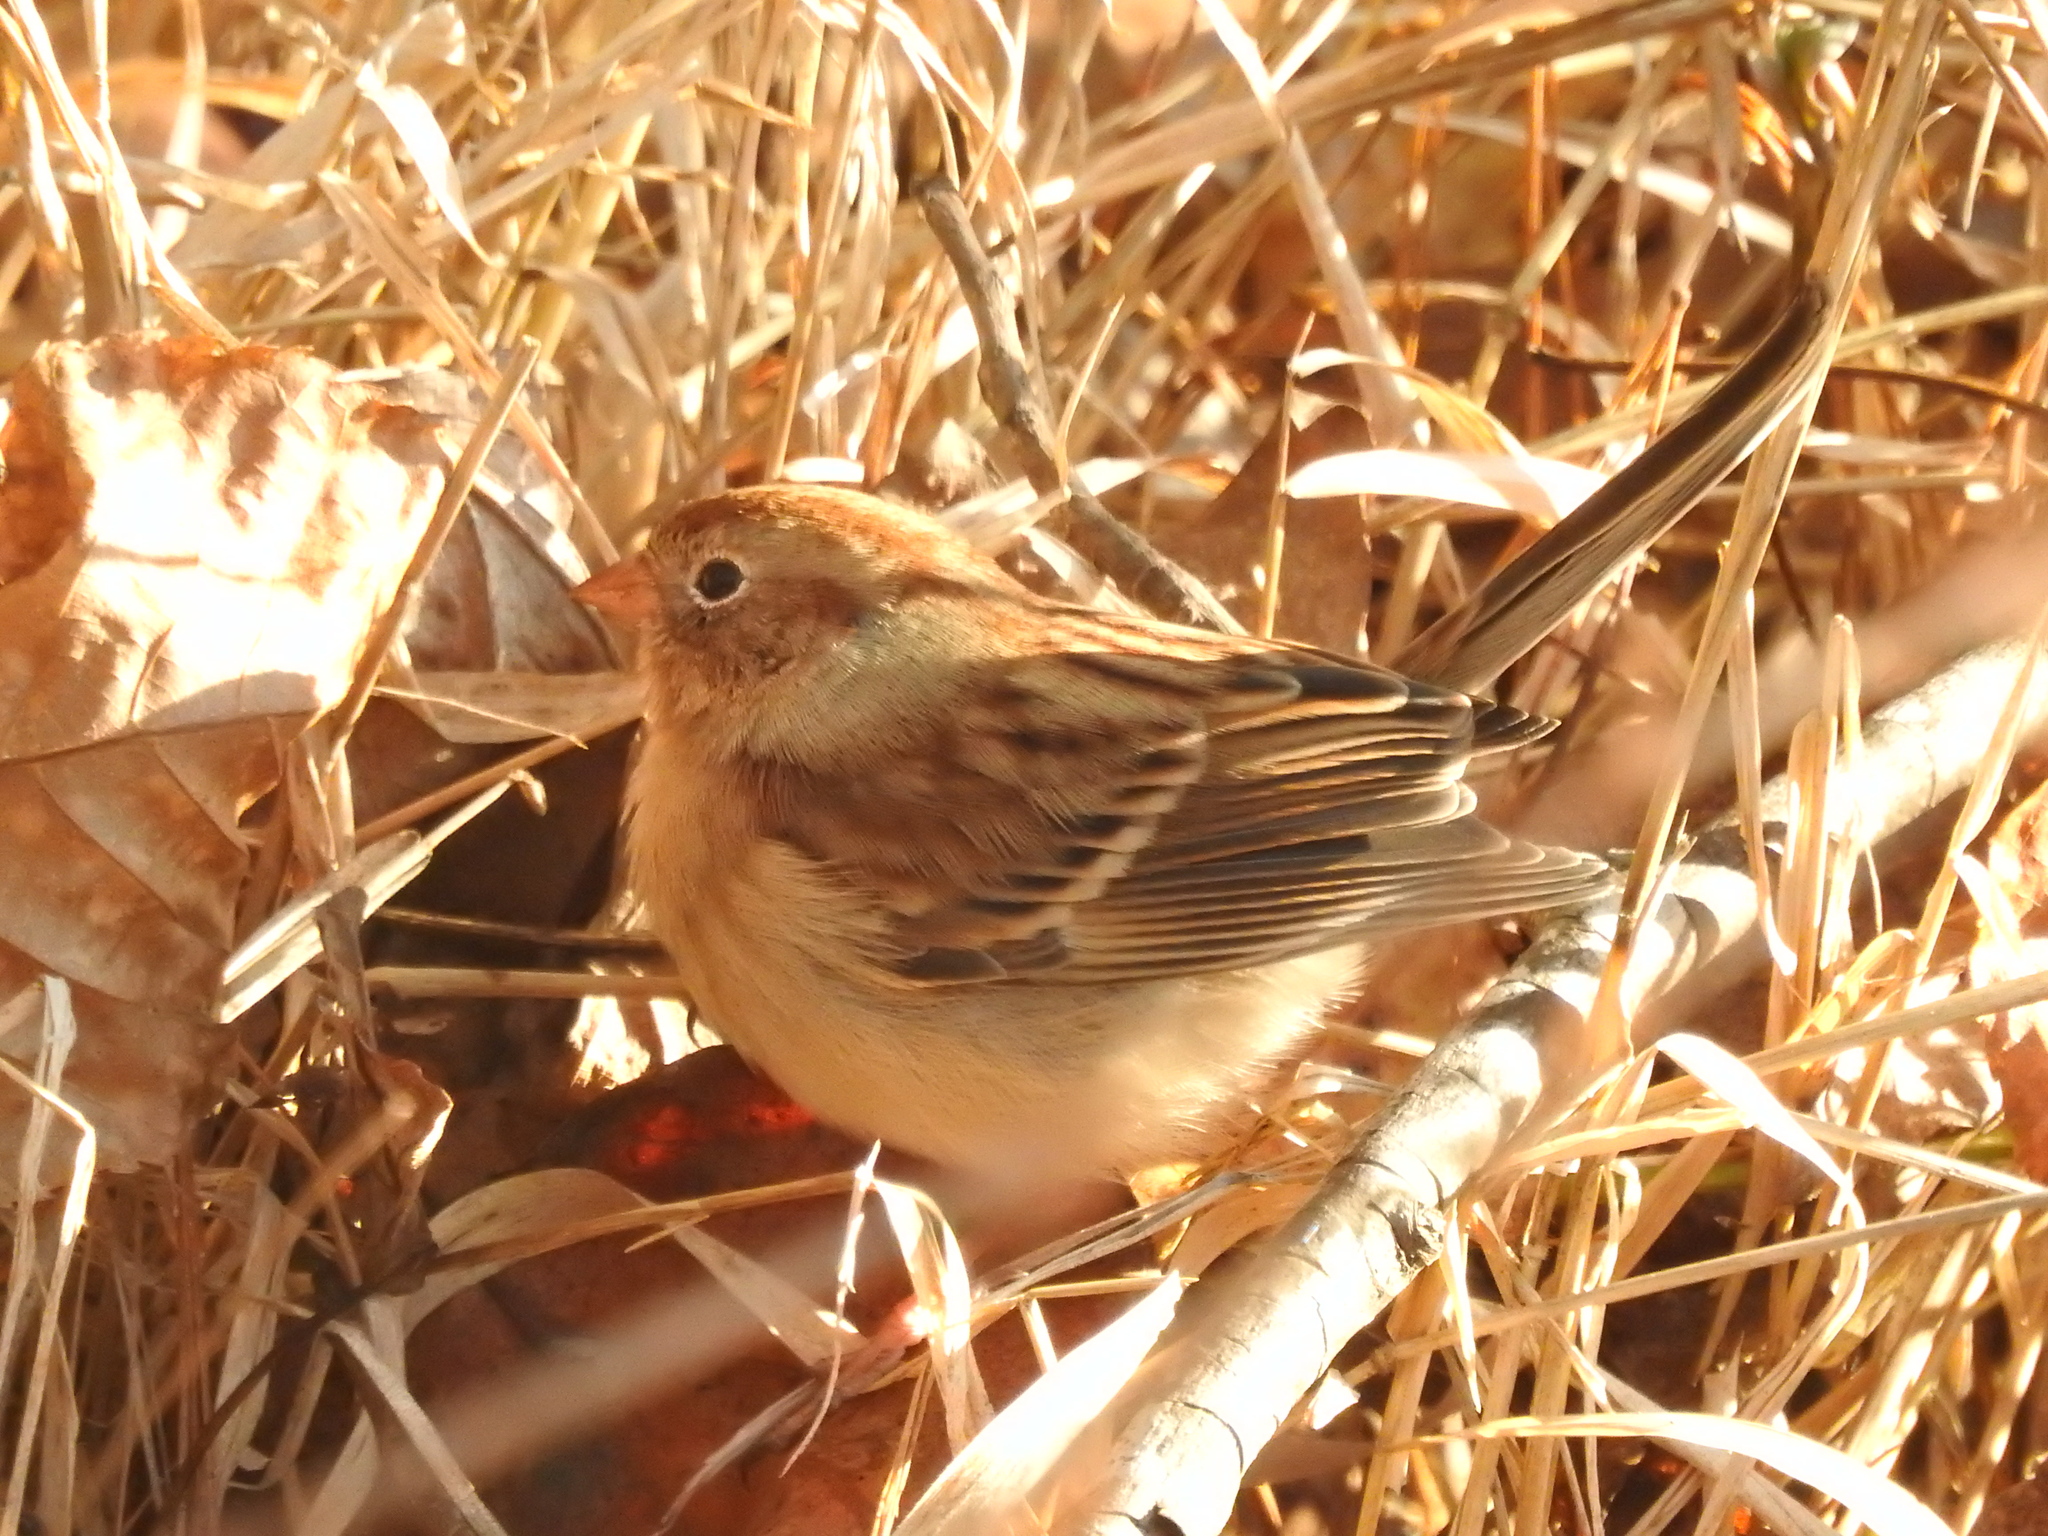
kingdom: Animalia
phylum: Chordata
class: Aves
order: Passeriformes
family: Passerellidae
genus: Spizella
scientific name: Spizella pusilla
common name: Field sparrow
